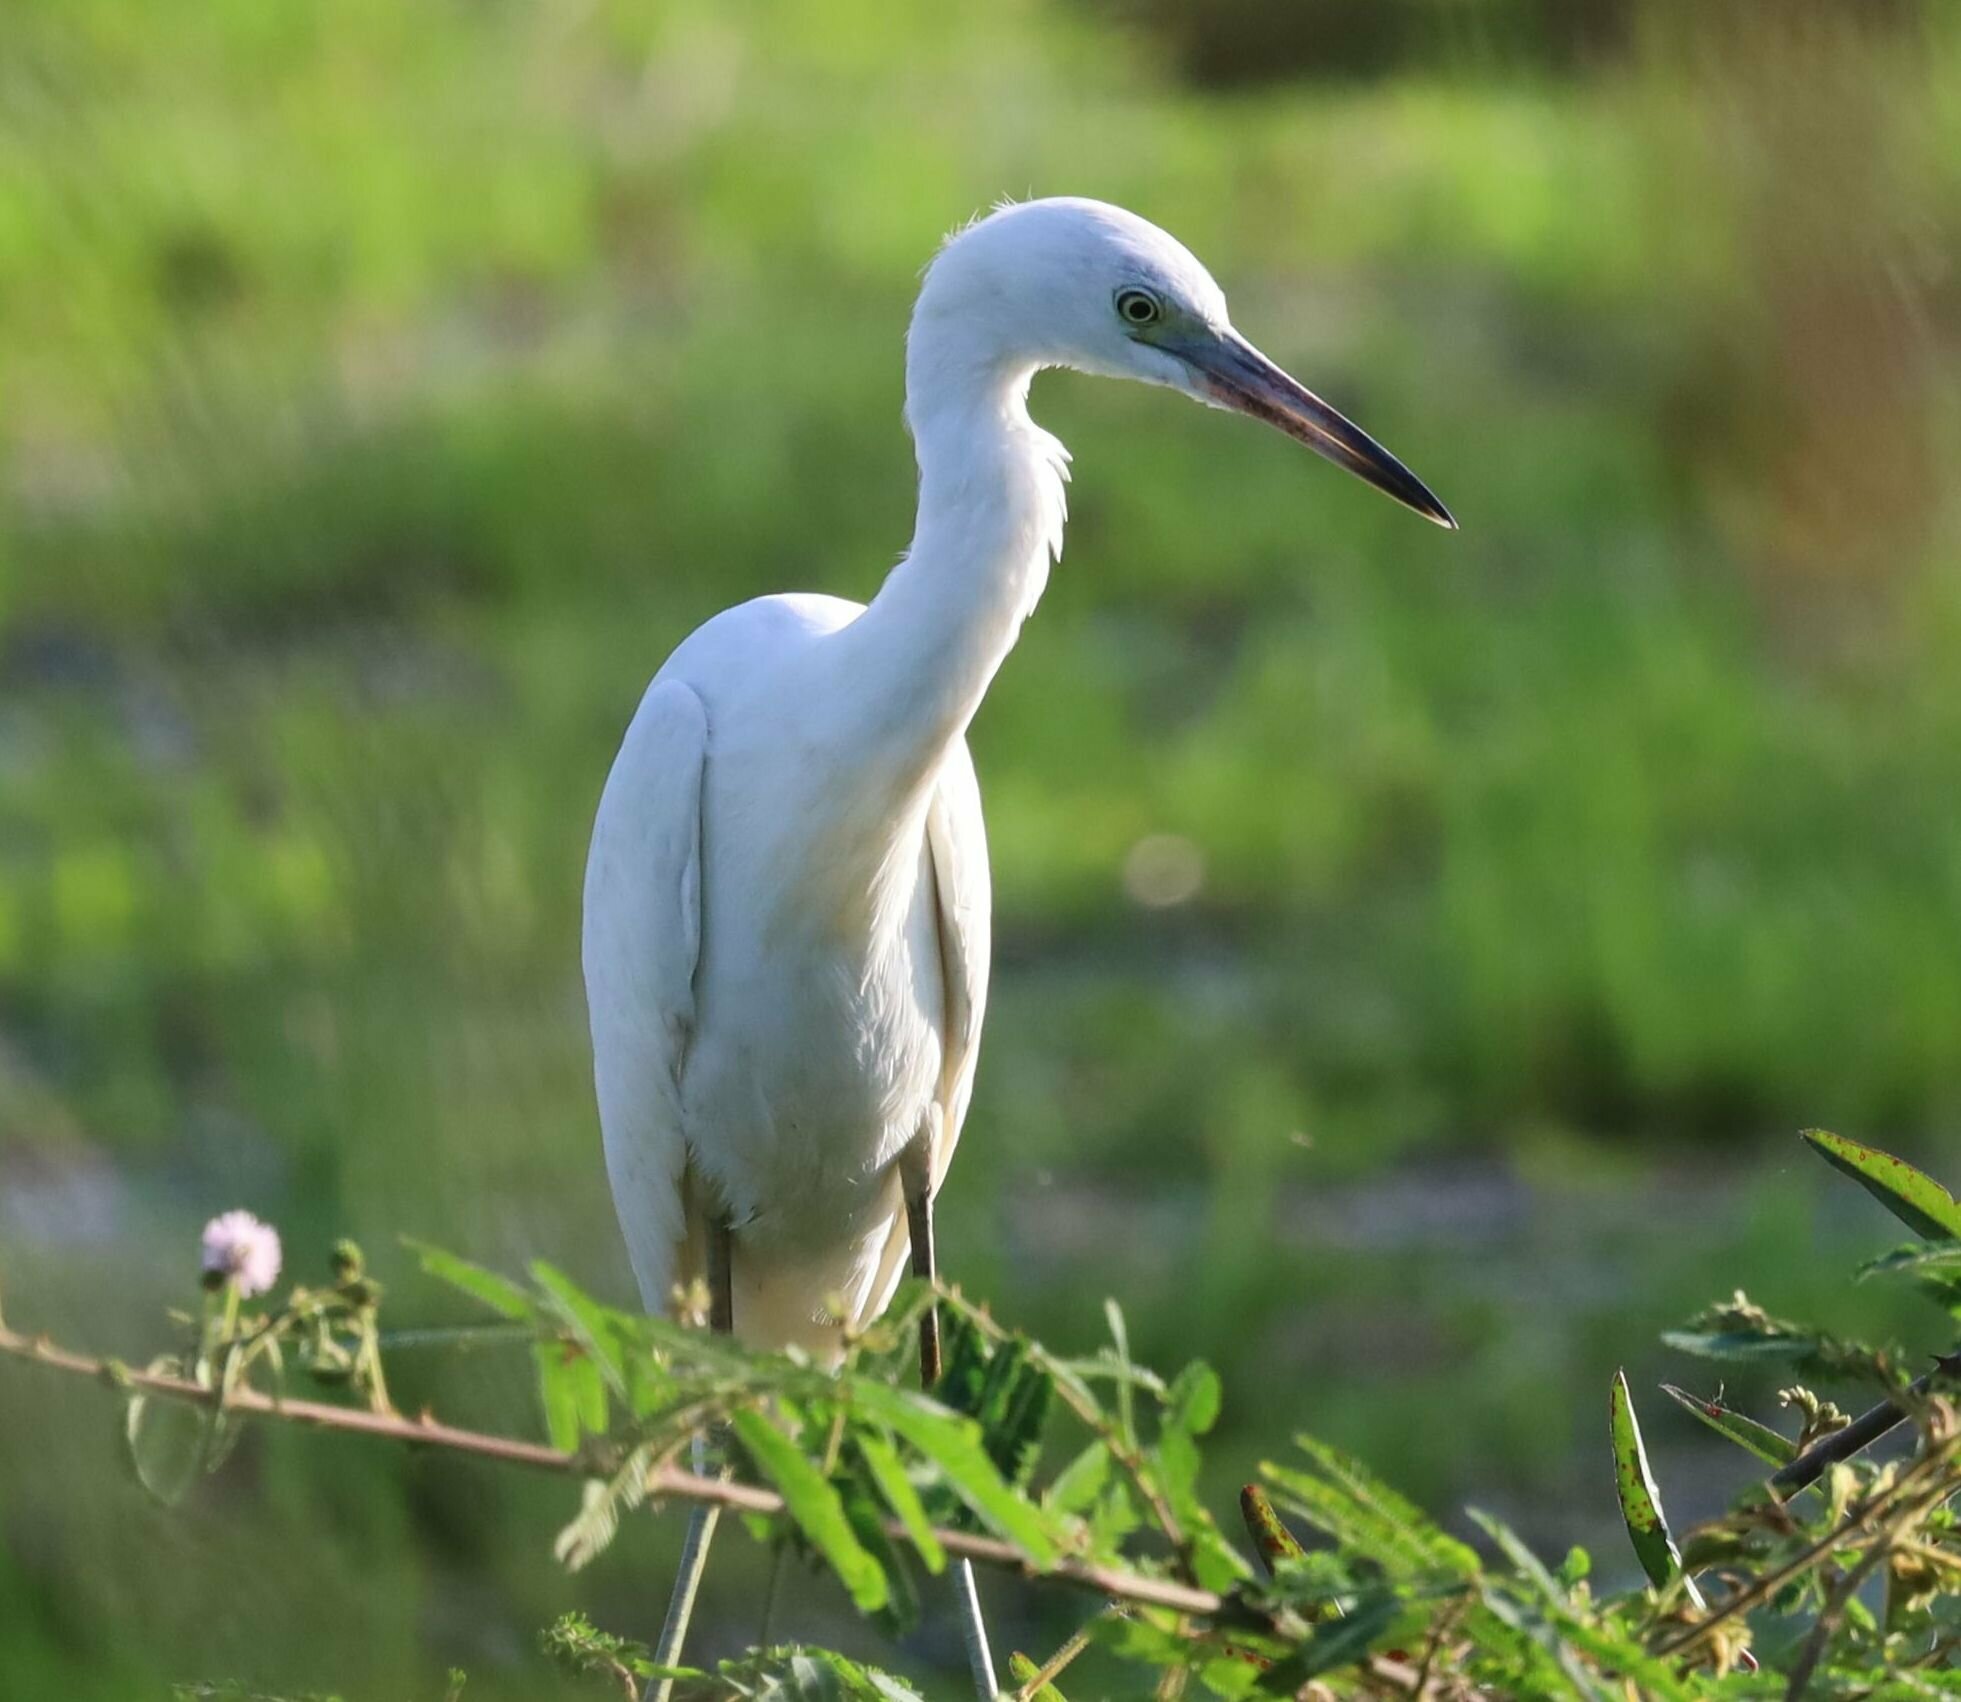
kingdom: Animalia
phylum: Chordata
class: Aves
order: Pelecaniformes
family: Ardeidae
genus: Egretta
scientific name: Egretta caerulea
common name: Little blue heron
